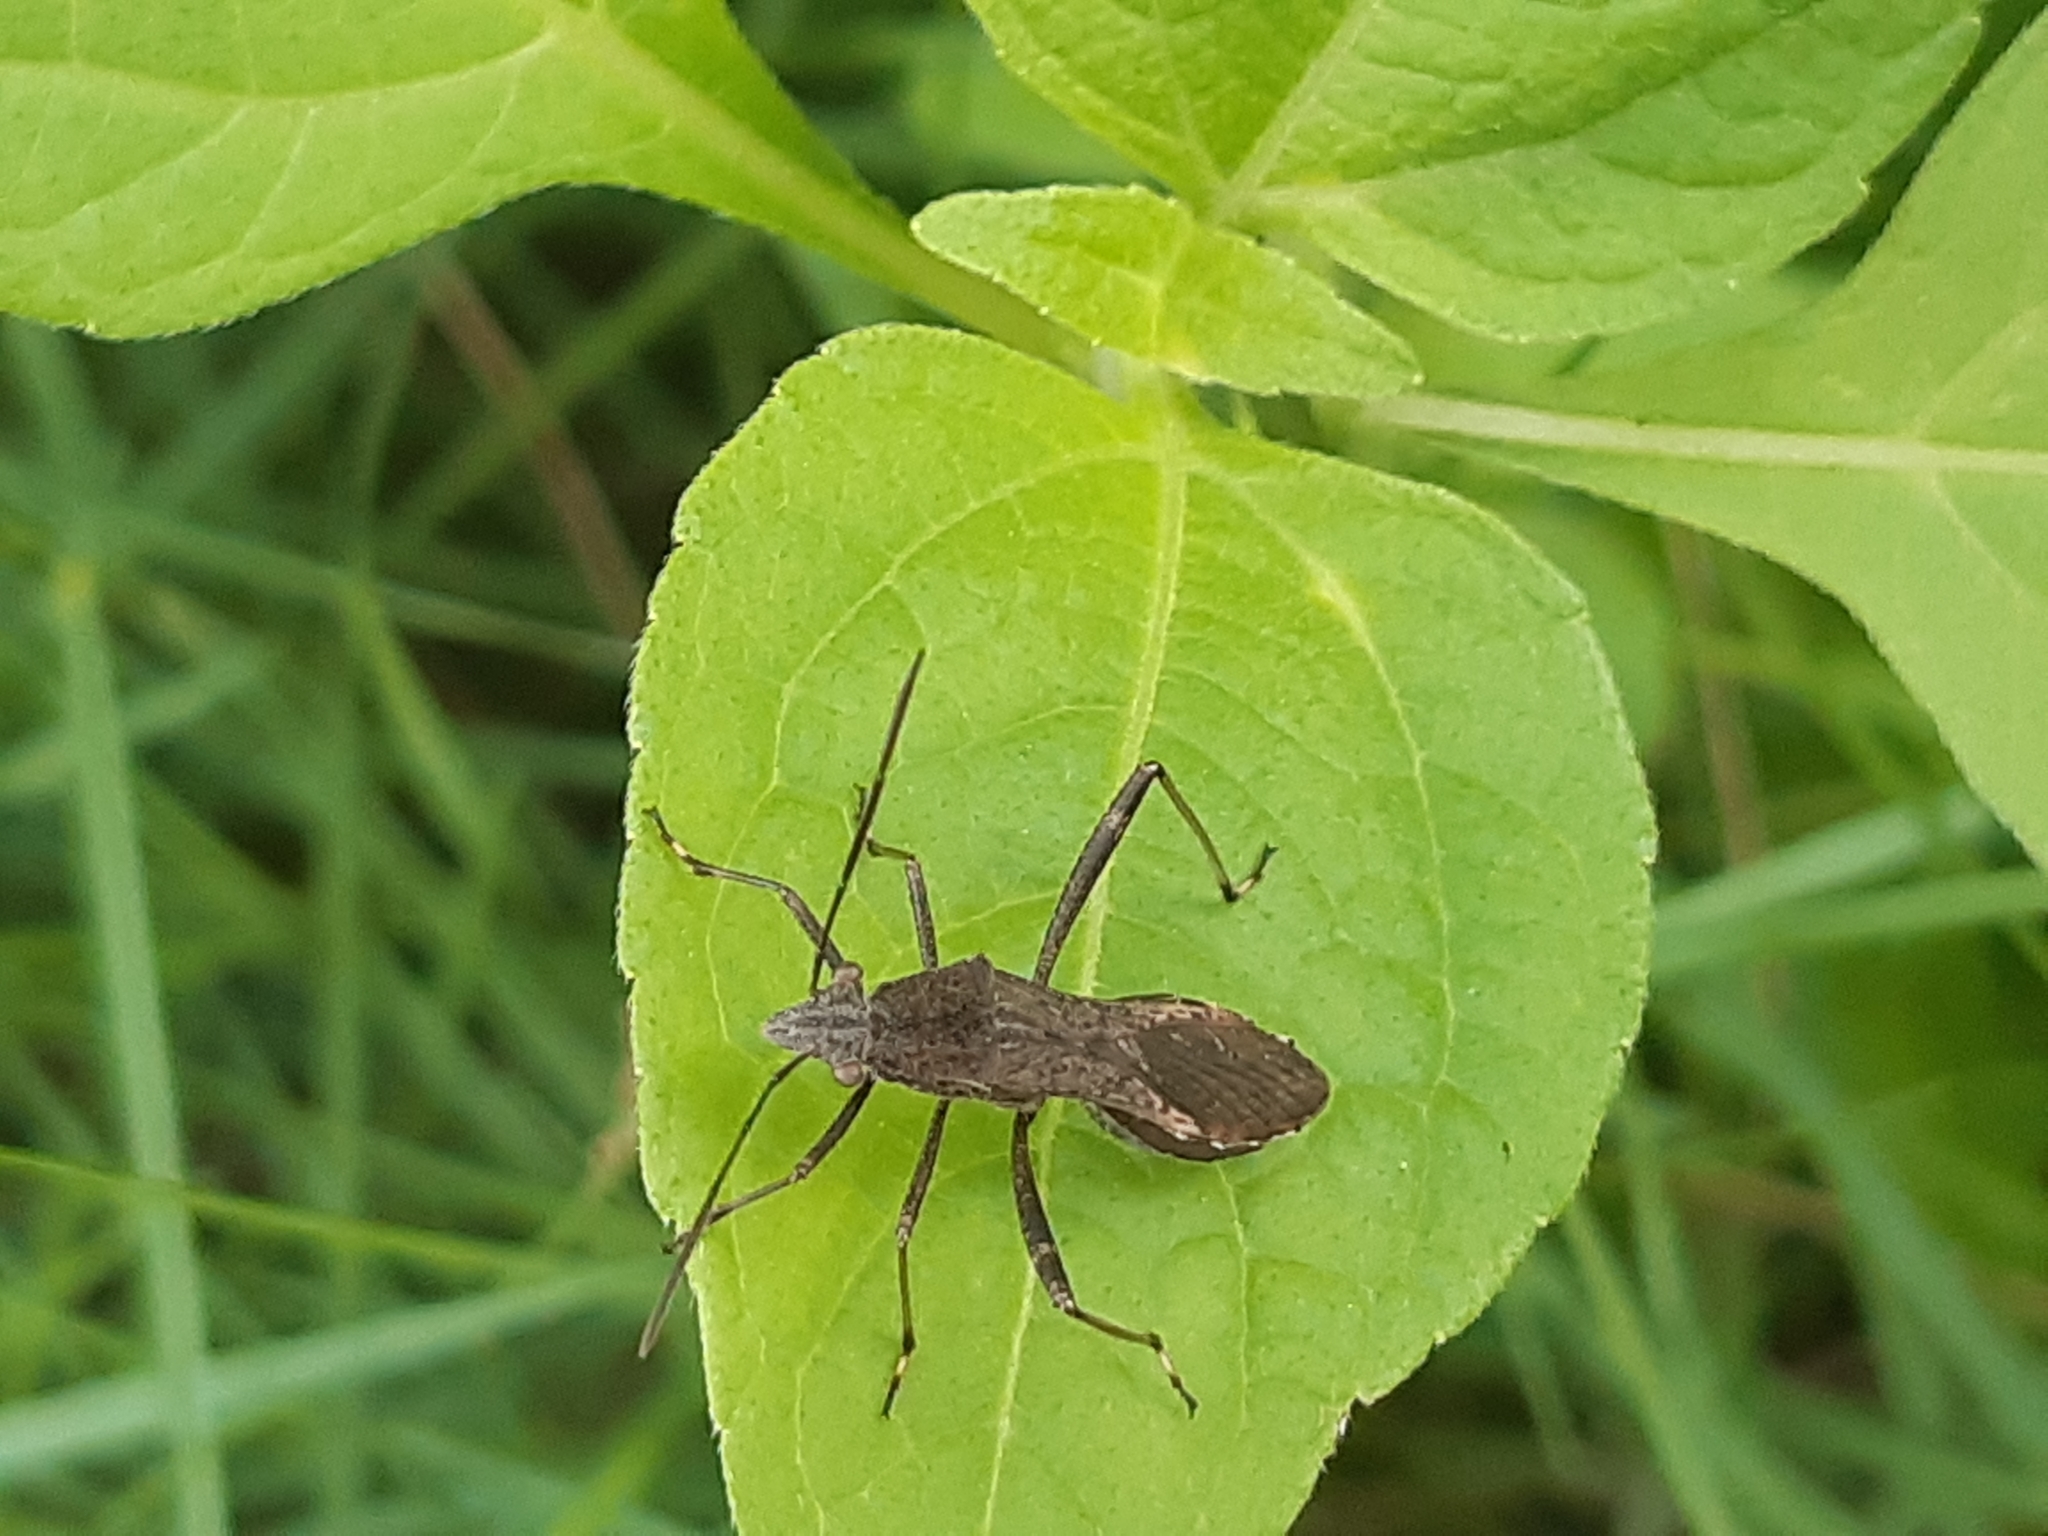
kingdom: Animalia
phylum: Arthropoda
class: Insecta
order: Hemiptera
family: Alydidae
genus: Neomegalotomus
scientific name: Neomegalotomus parvus
